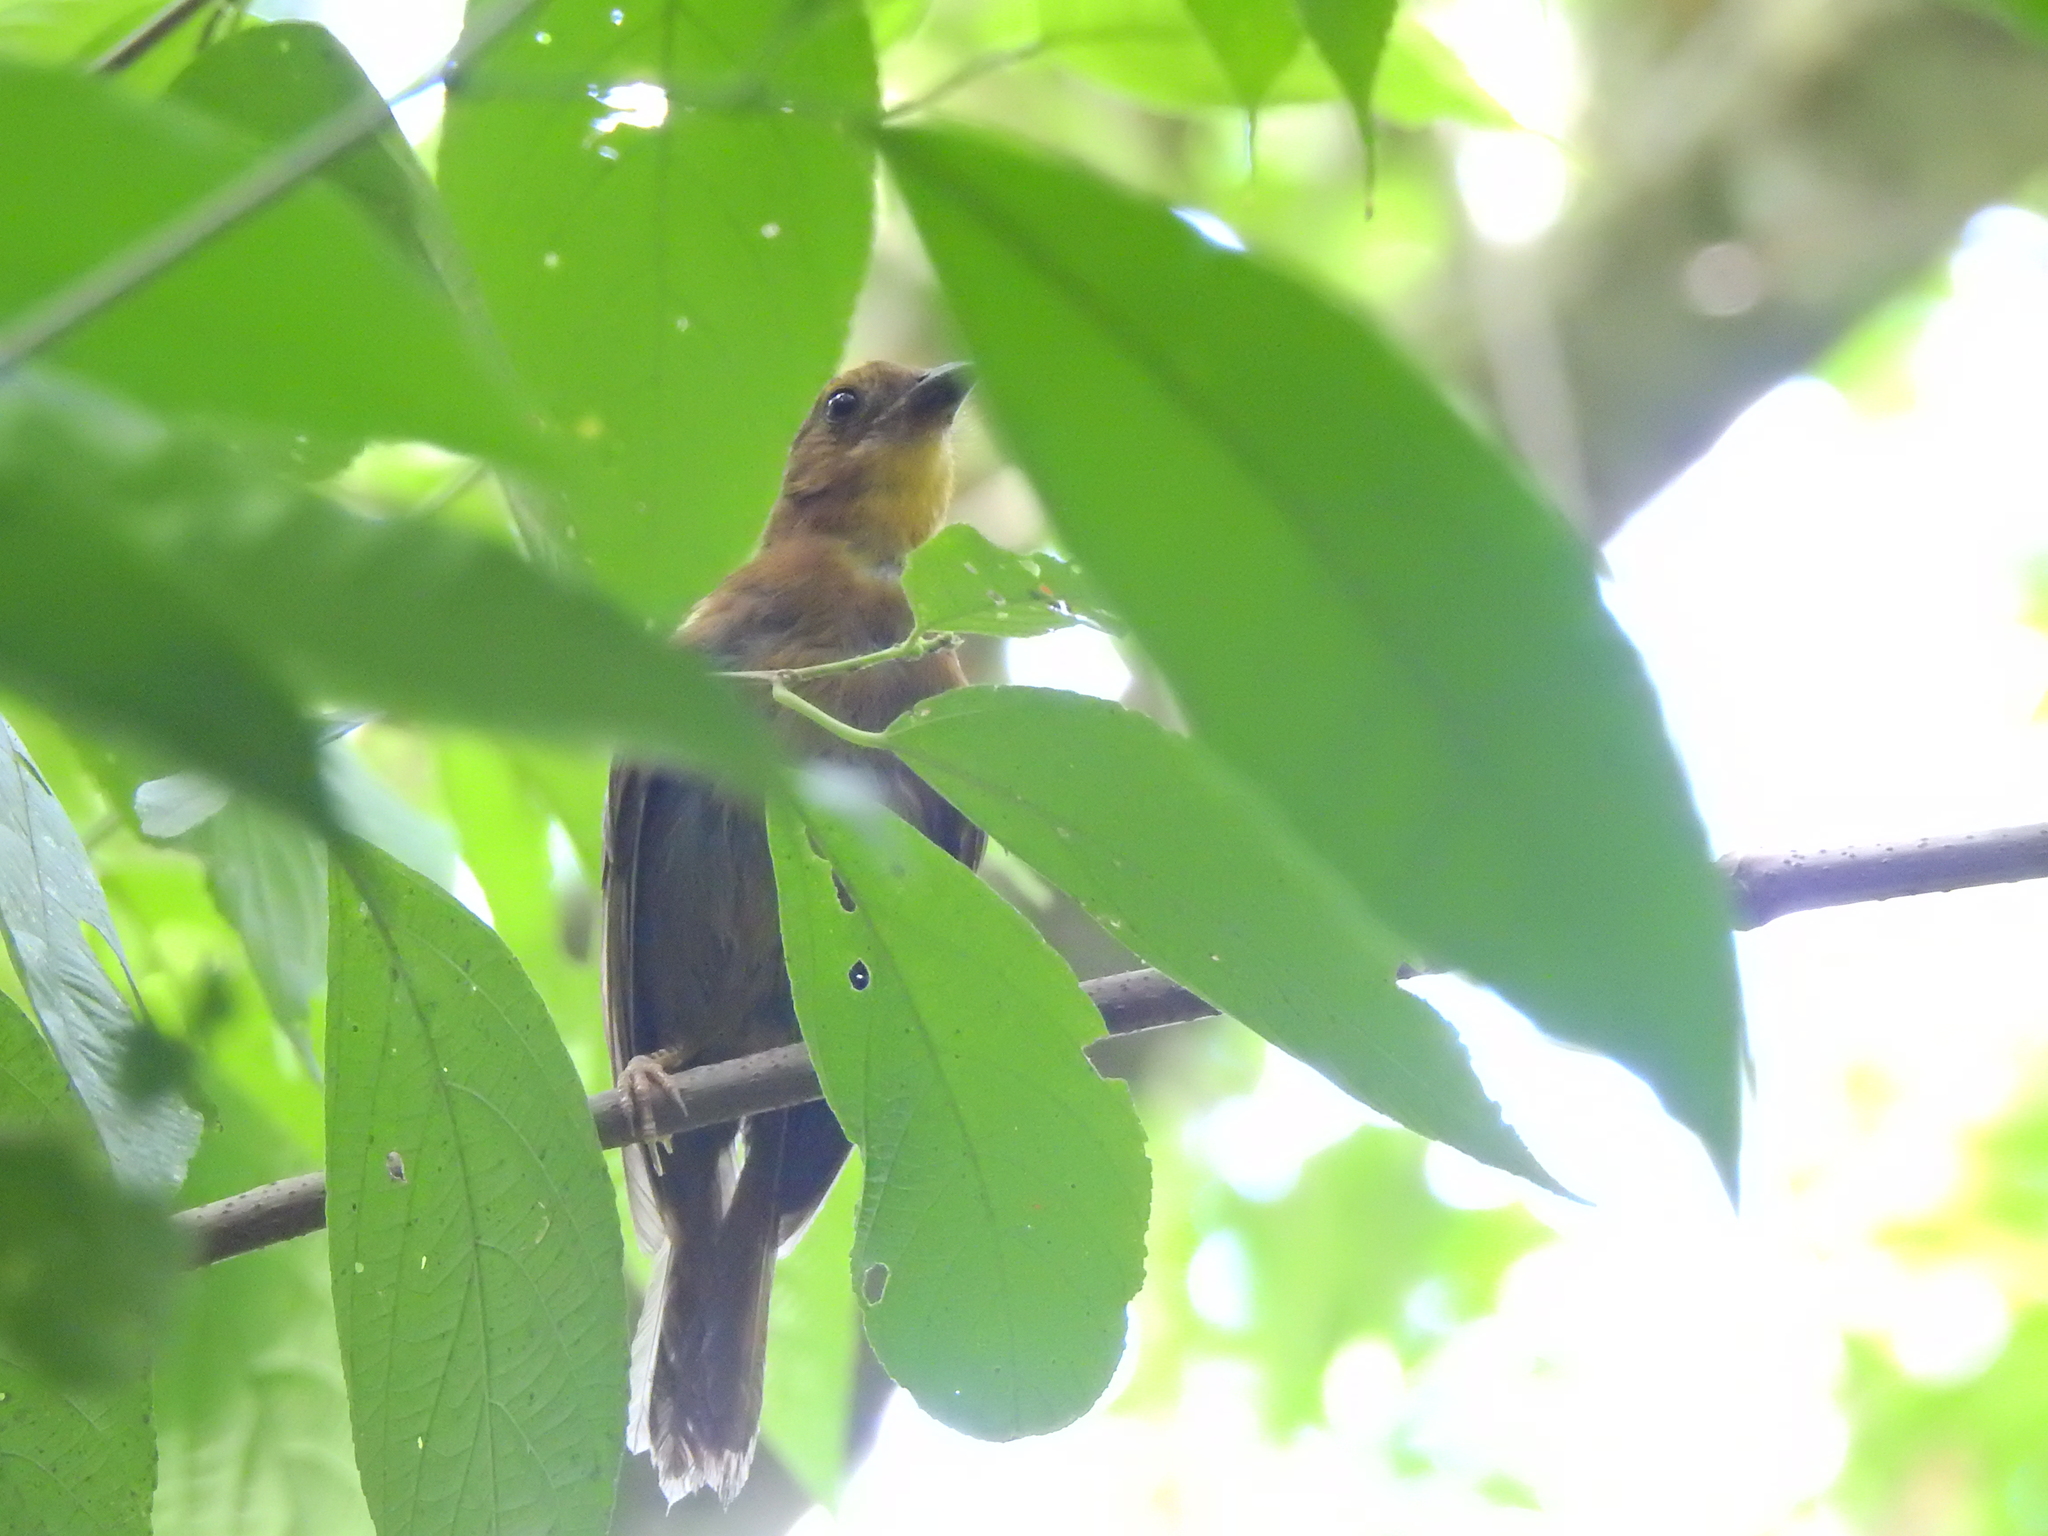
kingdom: Animalia
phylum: Chordata
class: Aves
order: Passeriformes
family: Cardinalidae
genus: Habia
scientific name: Habia fuscicauda
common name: Red-throated ant-tanager
